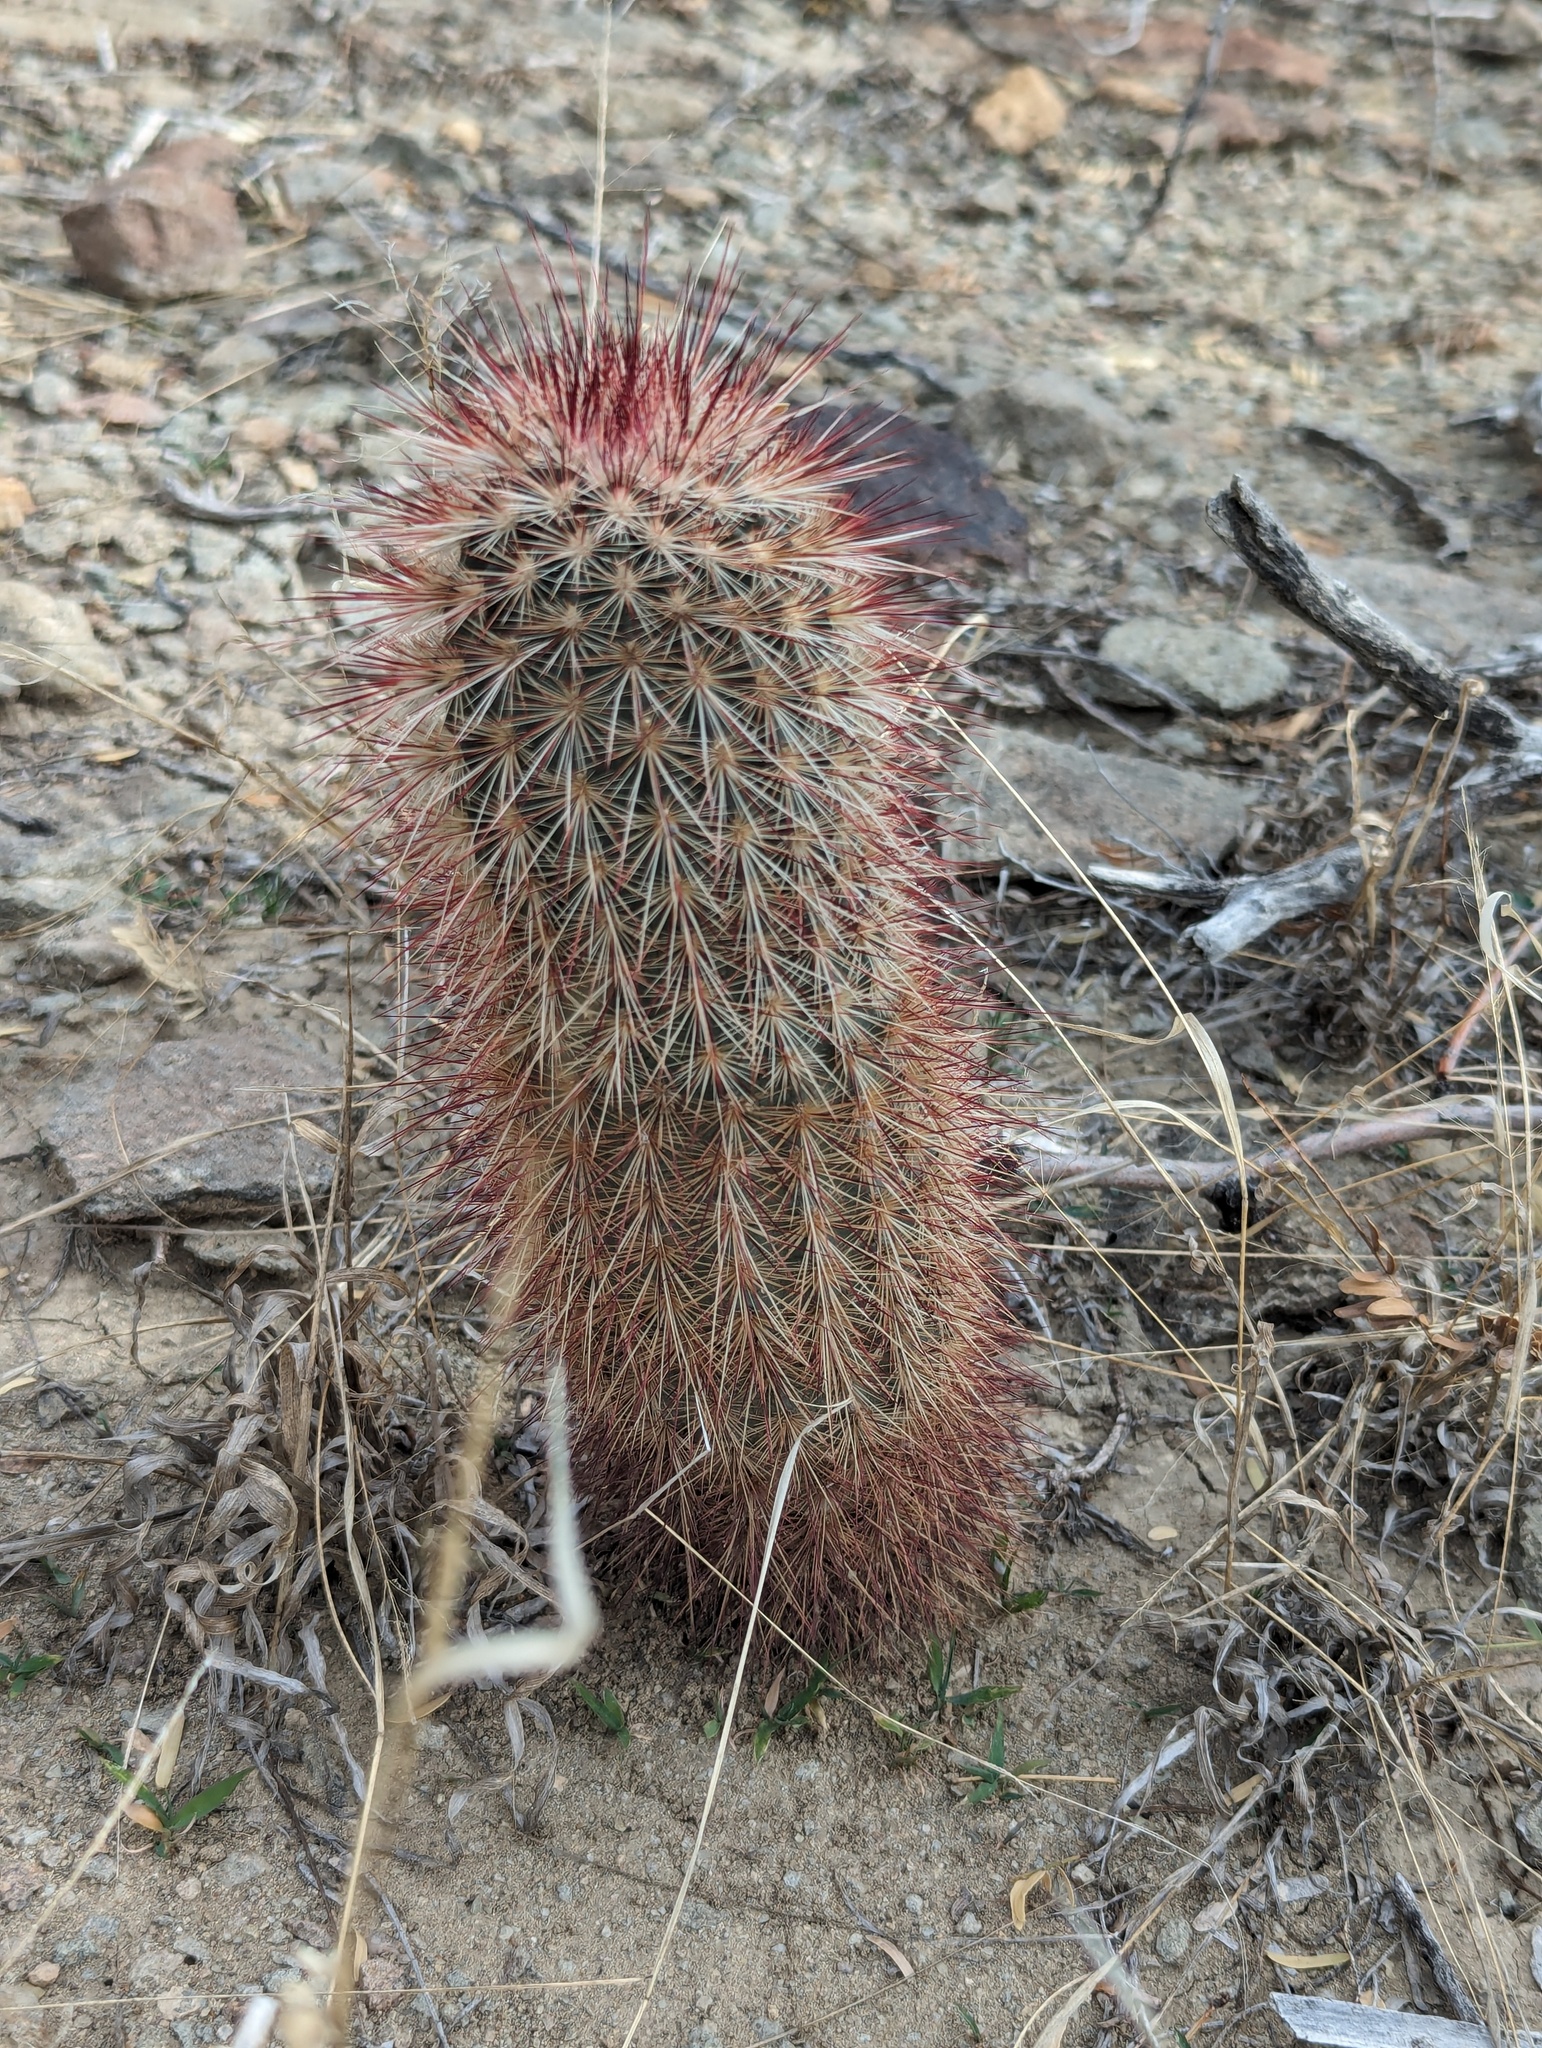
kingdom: Plantae
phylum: Tracheophyta
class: Magnoliopsida
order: Caryophyllales
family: Cactaceae
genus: Echinocereus
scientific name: Echinocereus russanthus
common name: Brownspine hedgehog cactus
